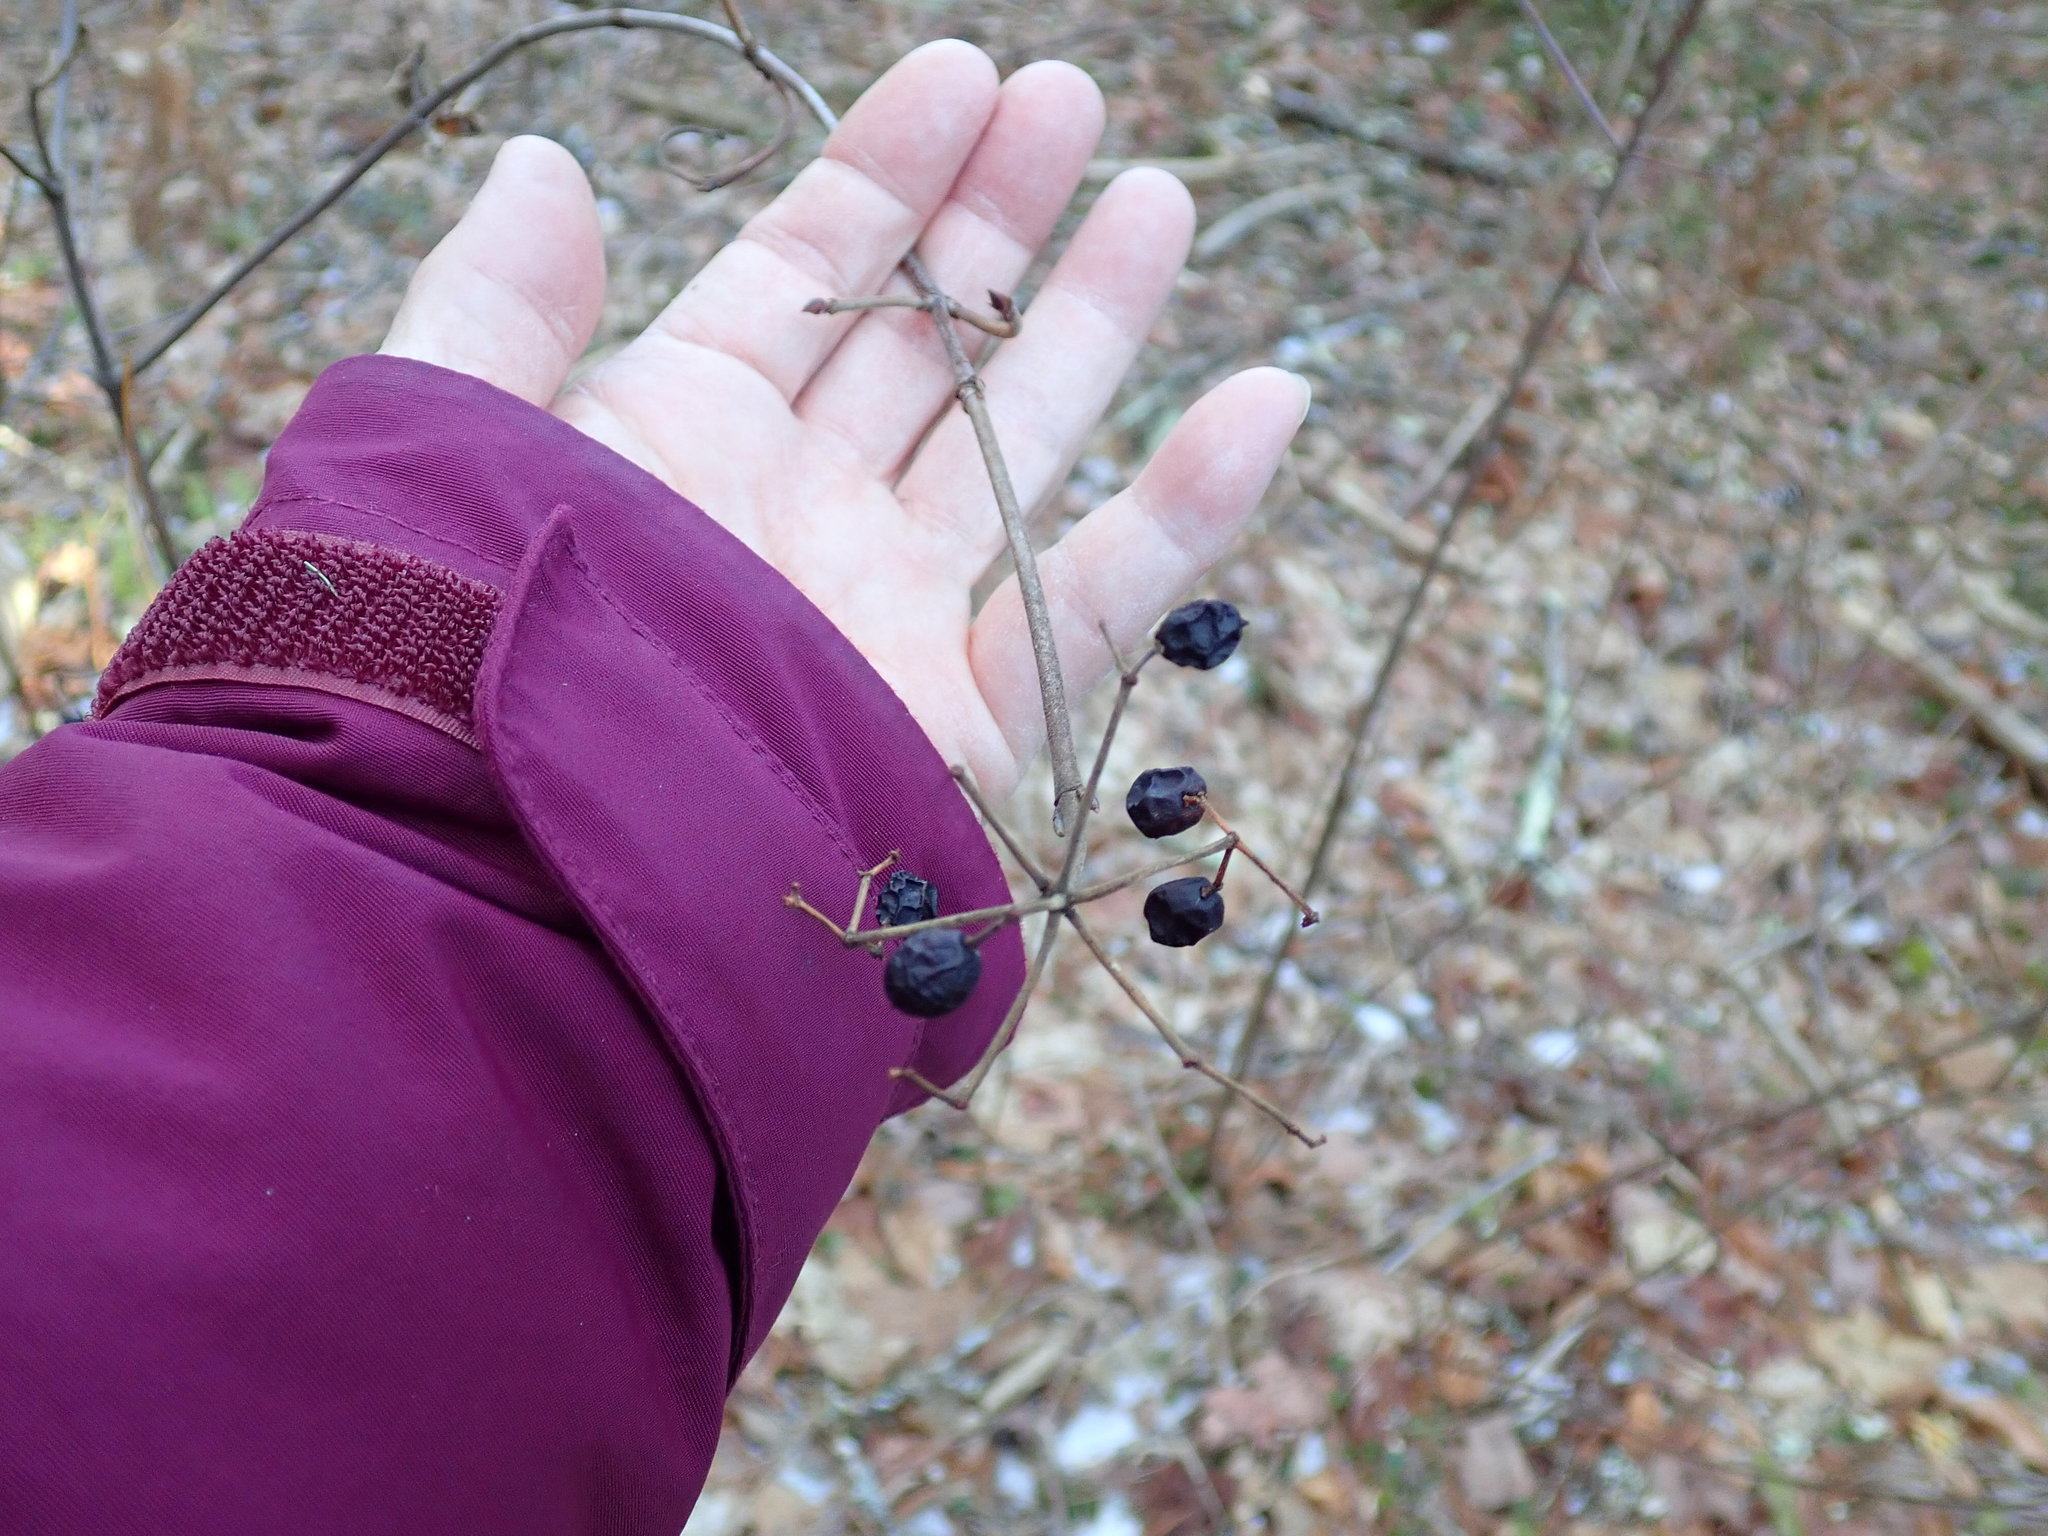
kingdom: Plantae
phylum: Tracheophyta
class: Magnoliopsida
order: Dipsacales
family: Viburnaceae
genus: Viburnum
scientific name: Viburnum acerifolium
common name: Dockmackie
